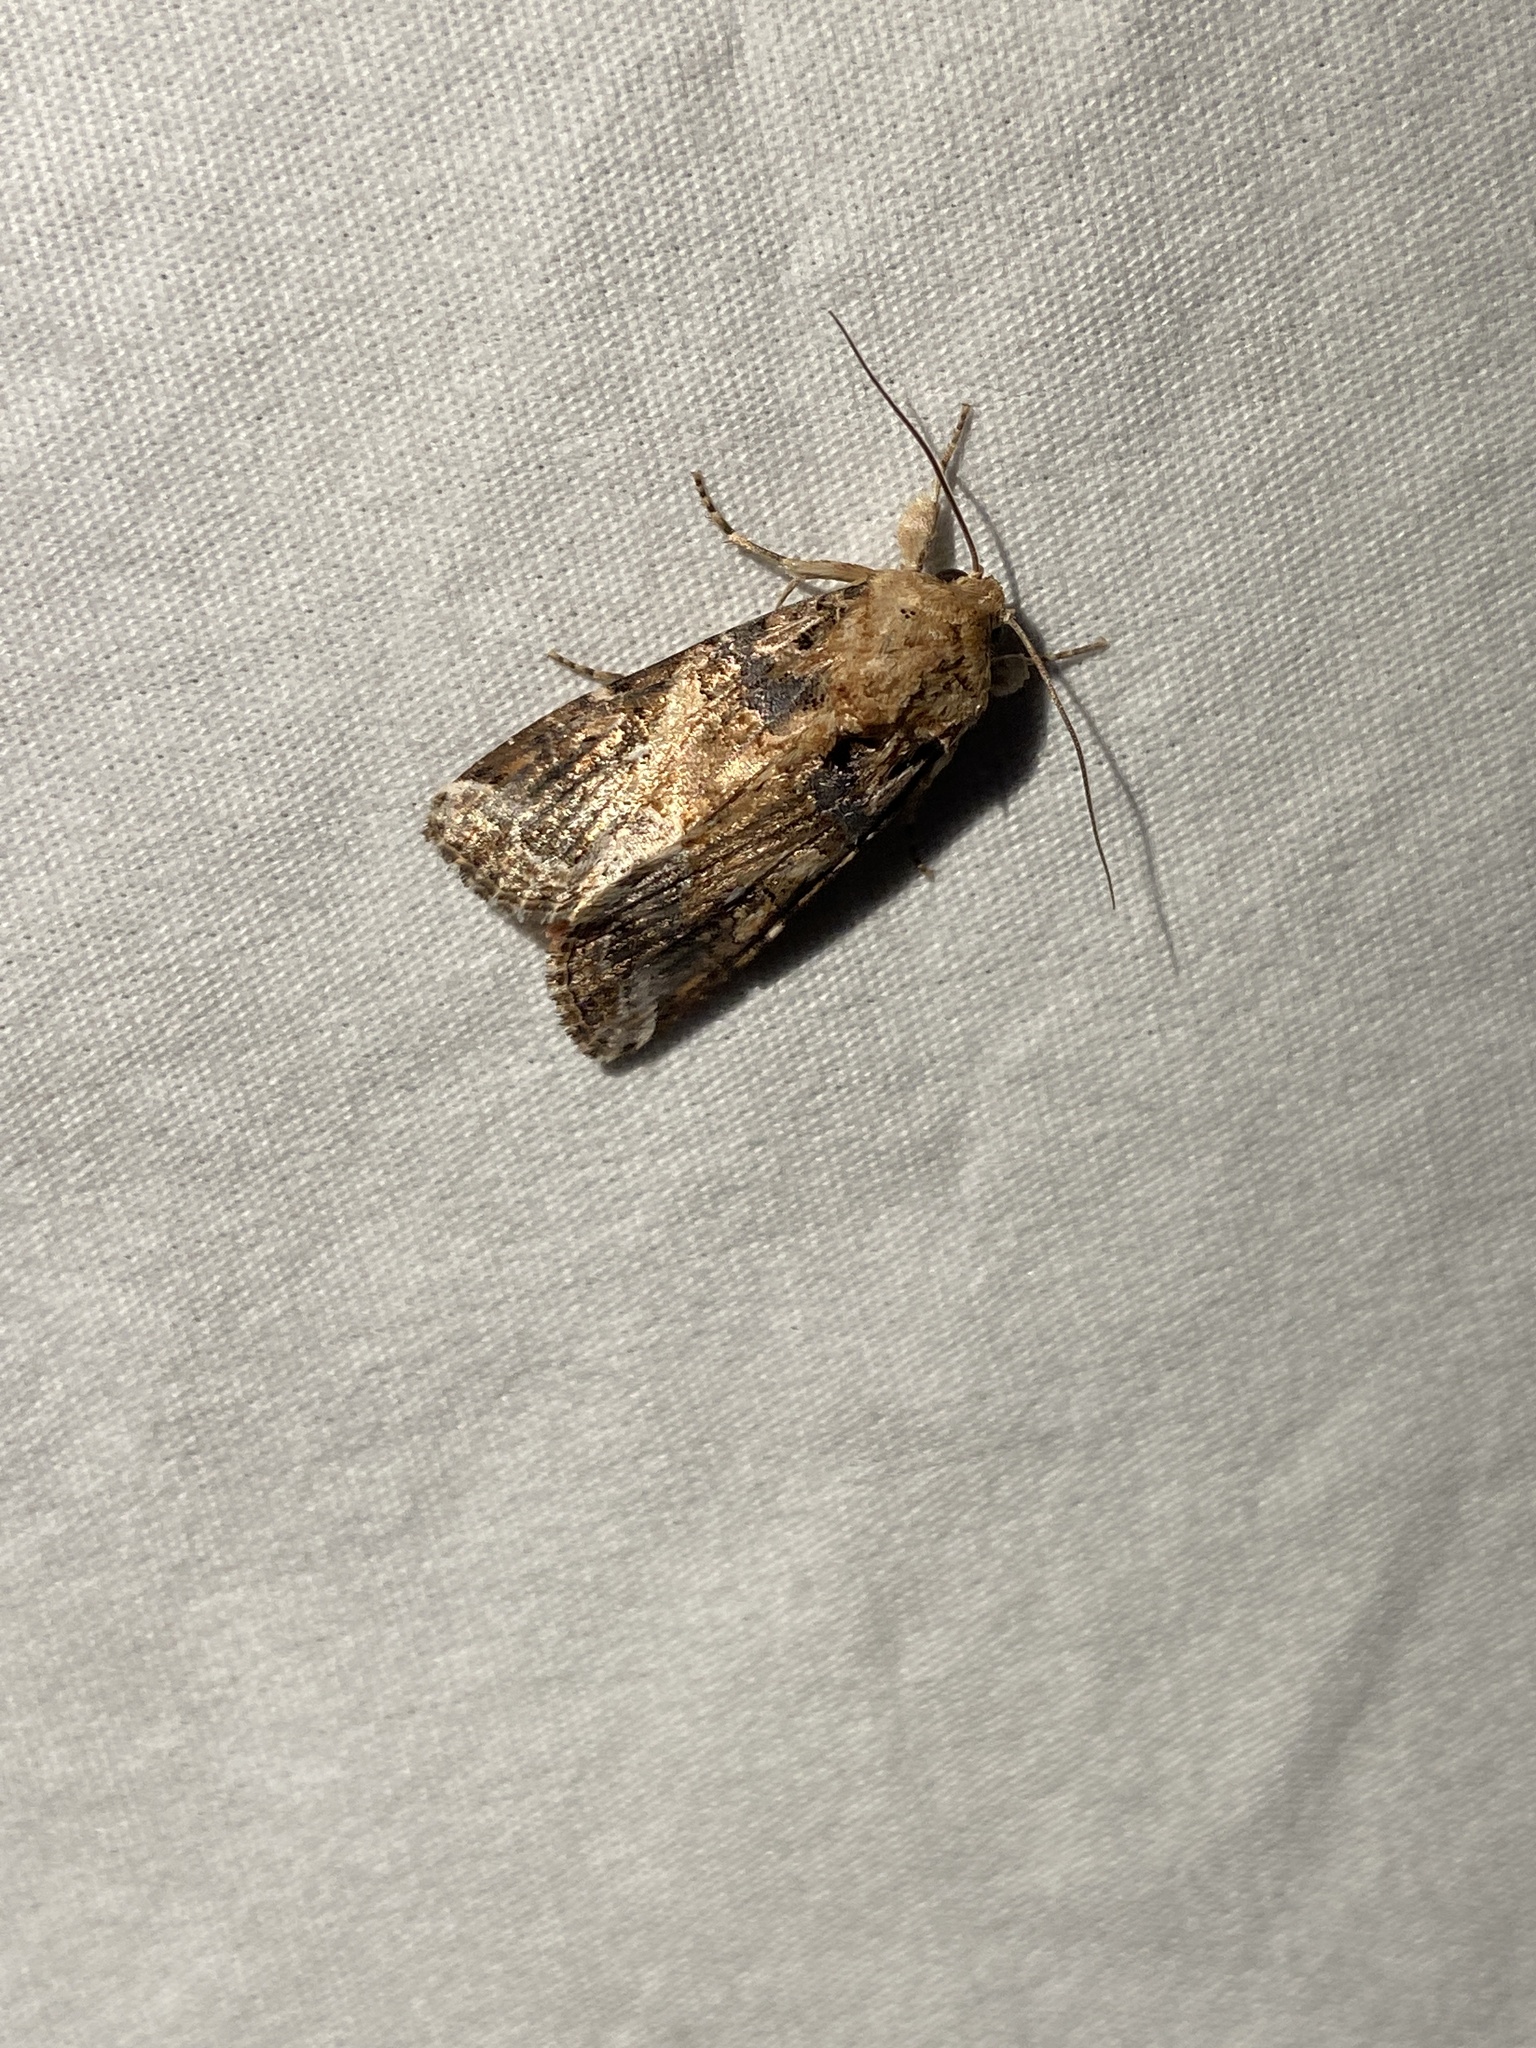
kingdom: Animalia
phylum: Arthropoda
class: Insecta
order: Lepidoptera
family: Noctuidae
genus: Spodoptera
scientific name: Spodoptera ornithogalli
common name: Yellow-striped armyworm
